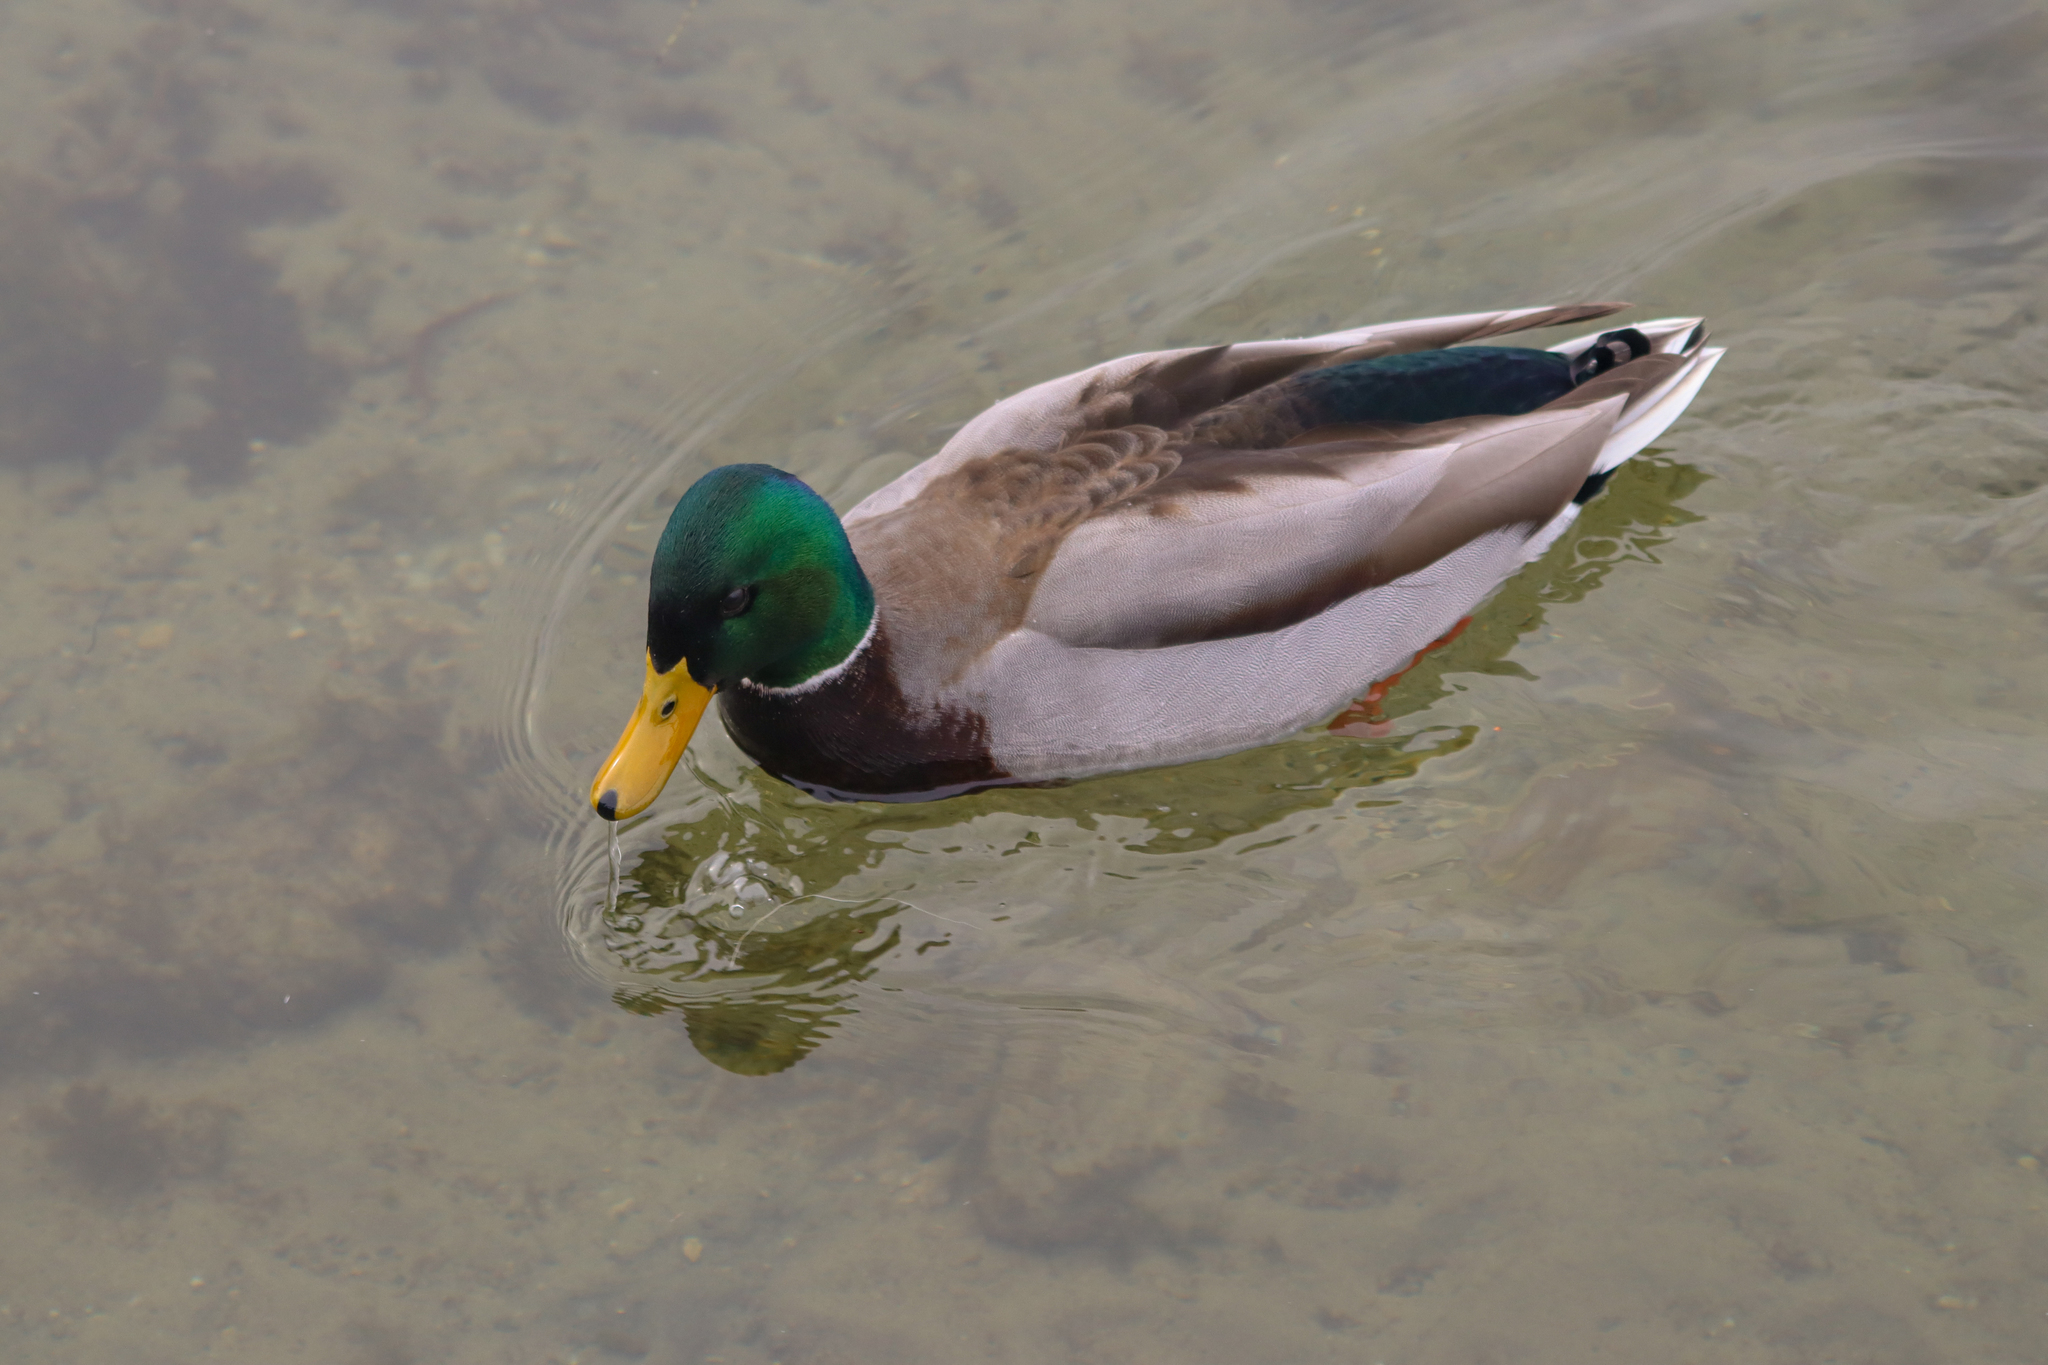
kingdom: Animalia
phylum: Chordata
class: Aves
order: Anseriformes
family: Anatidae
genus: Anas
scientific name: Anas platyrhynchos
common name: Mallard
